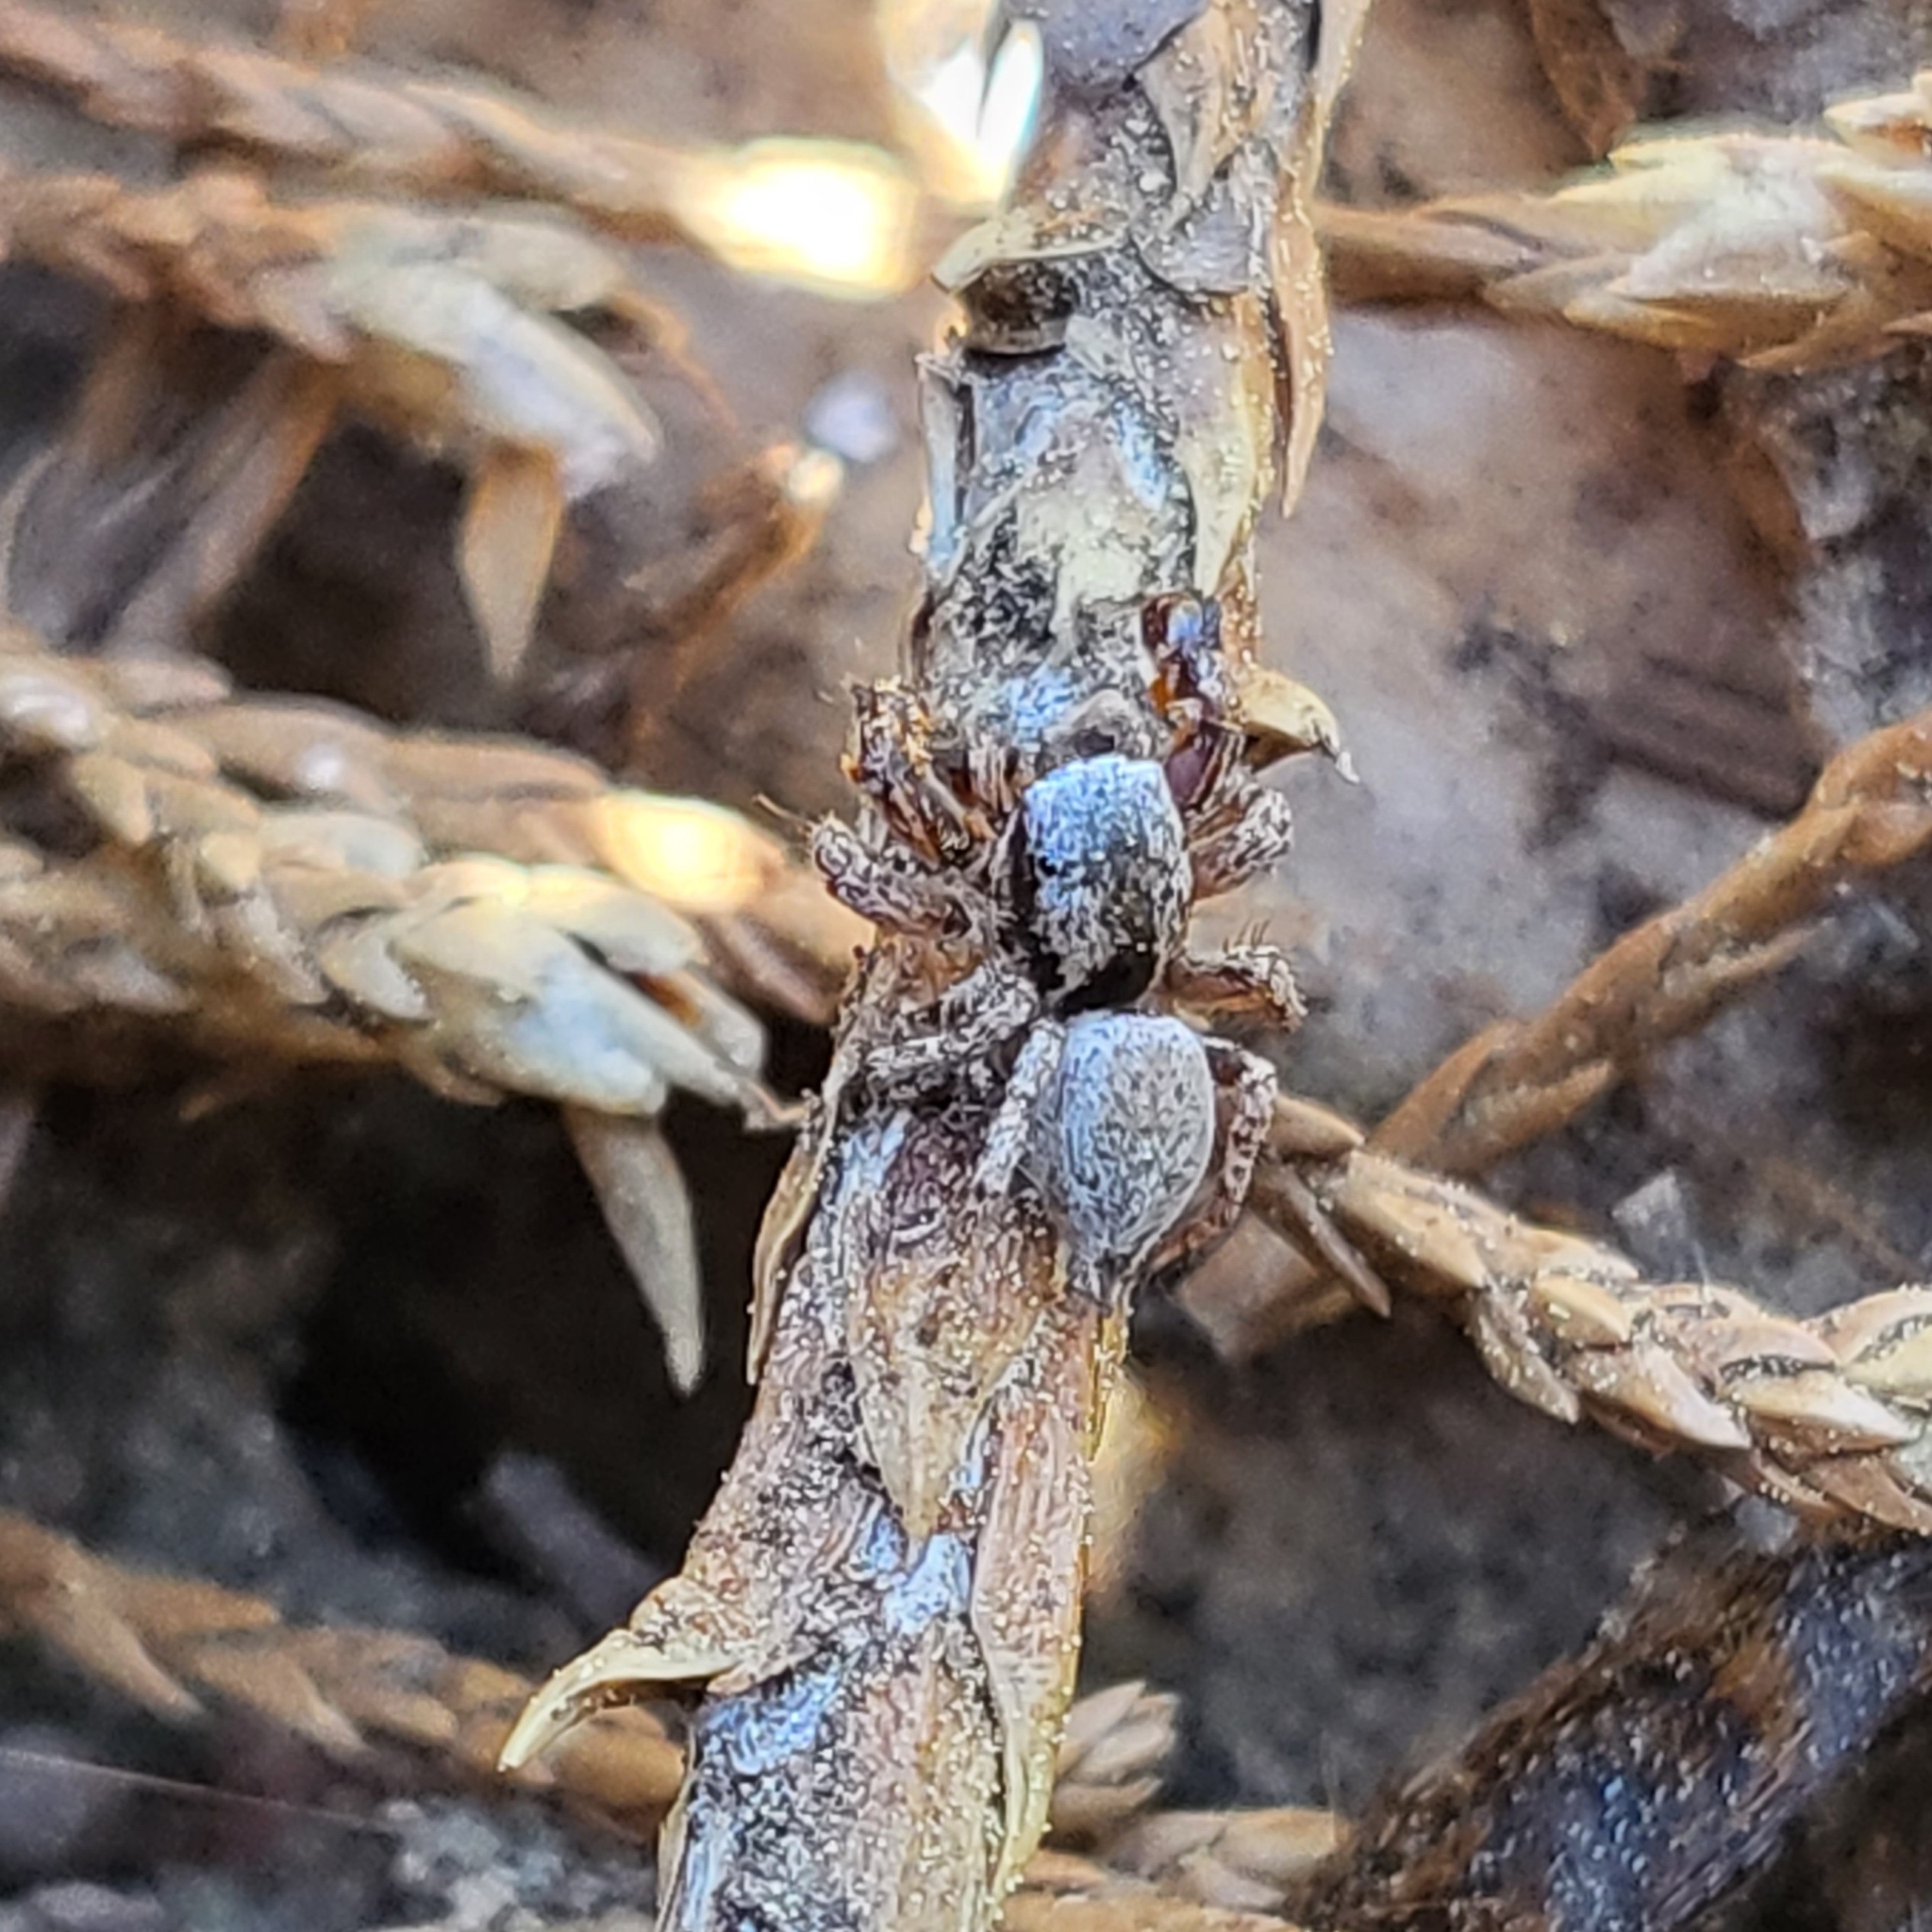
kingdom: Animalia
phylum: Arthropoda
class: Arachnida
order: Araneae
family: Salticidae
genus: Habronattus
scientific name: Habronattus oregonensis
